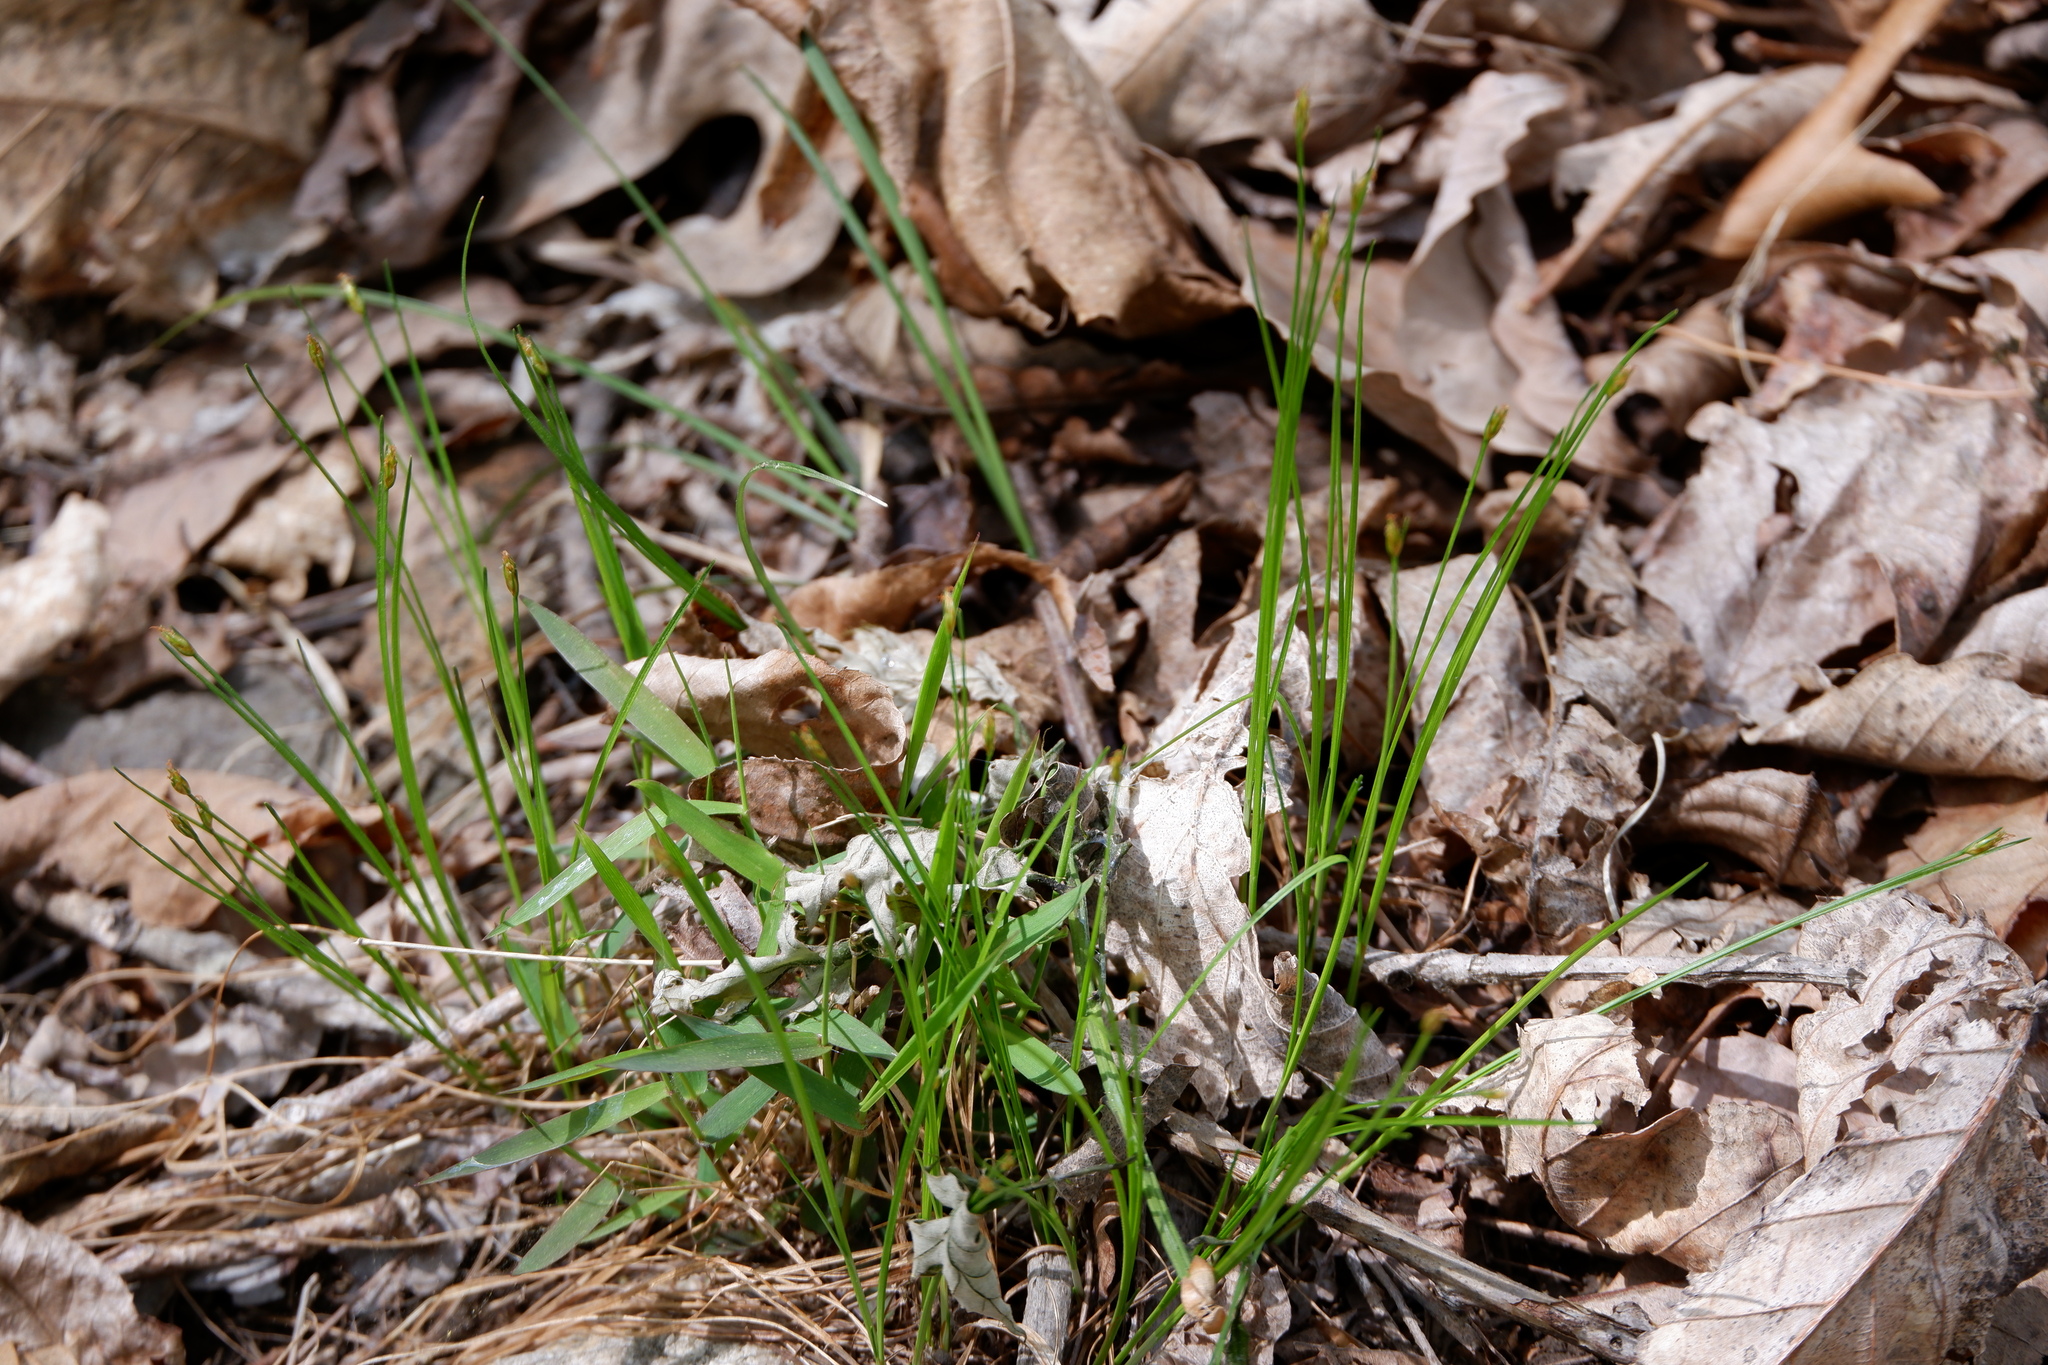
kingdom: Plantae
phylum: Tracheophyta
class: Liliopsida
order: Poales
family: Cyperaceae
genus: Trichophorum
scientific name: Trichophorum planifolium
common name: Bashful bulrush
